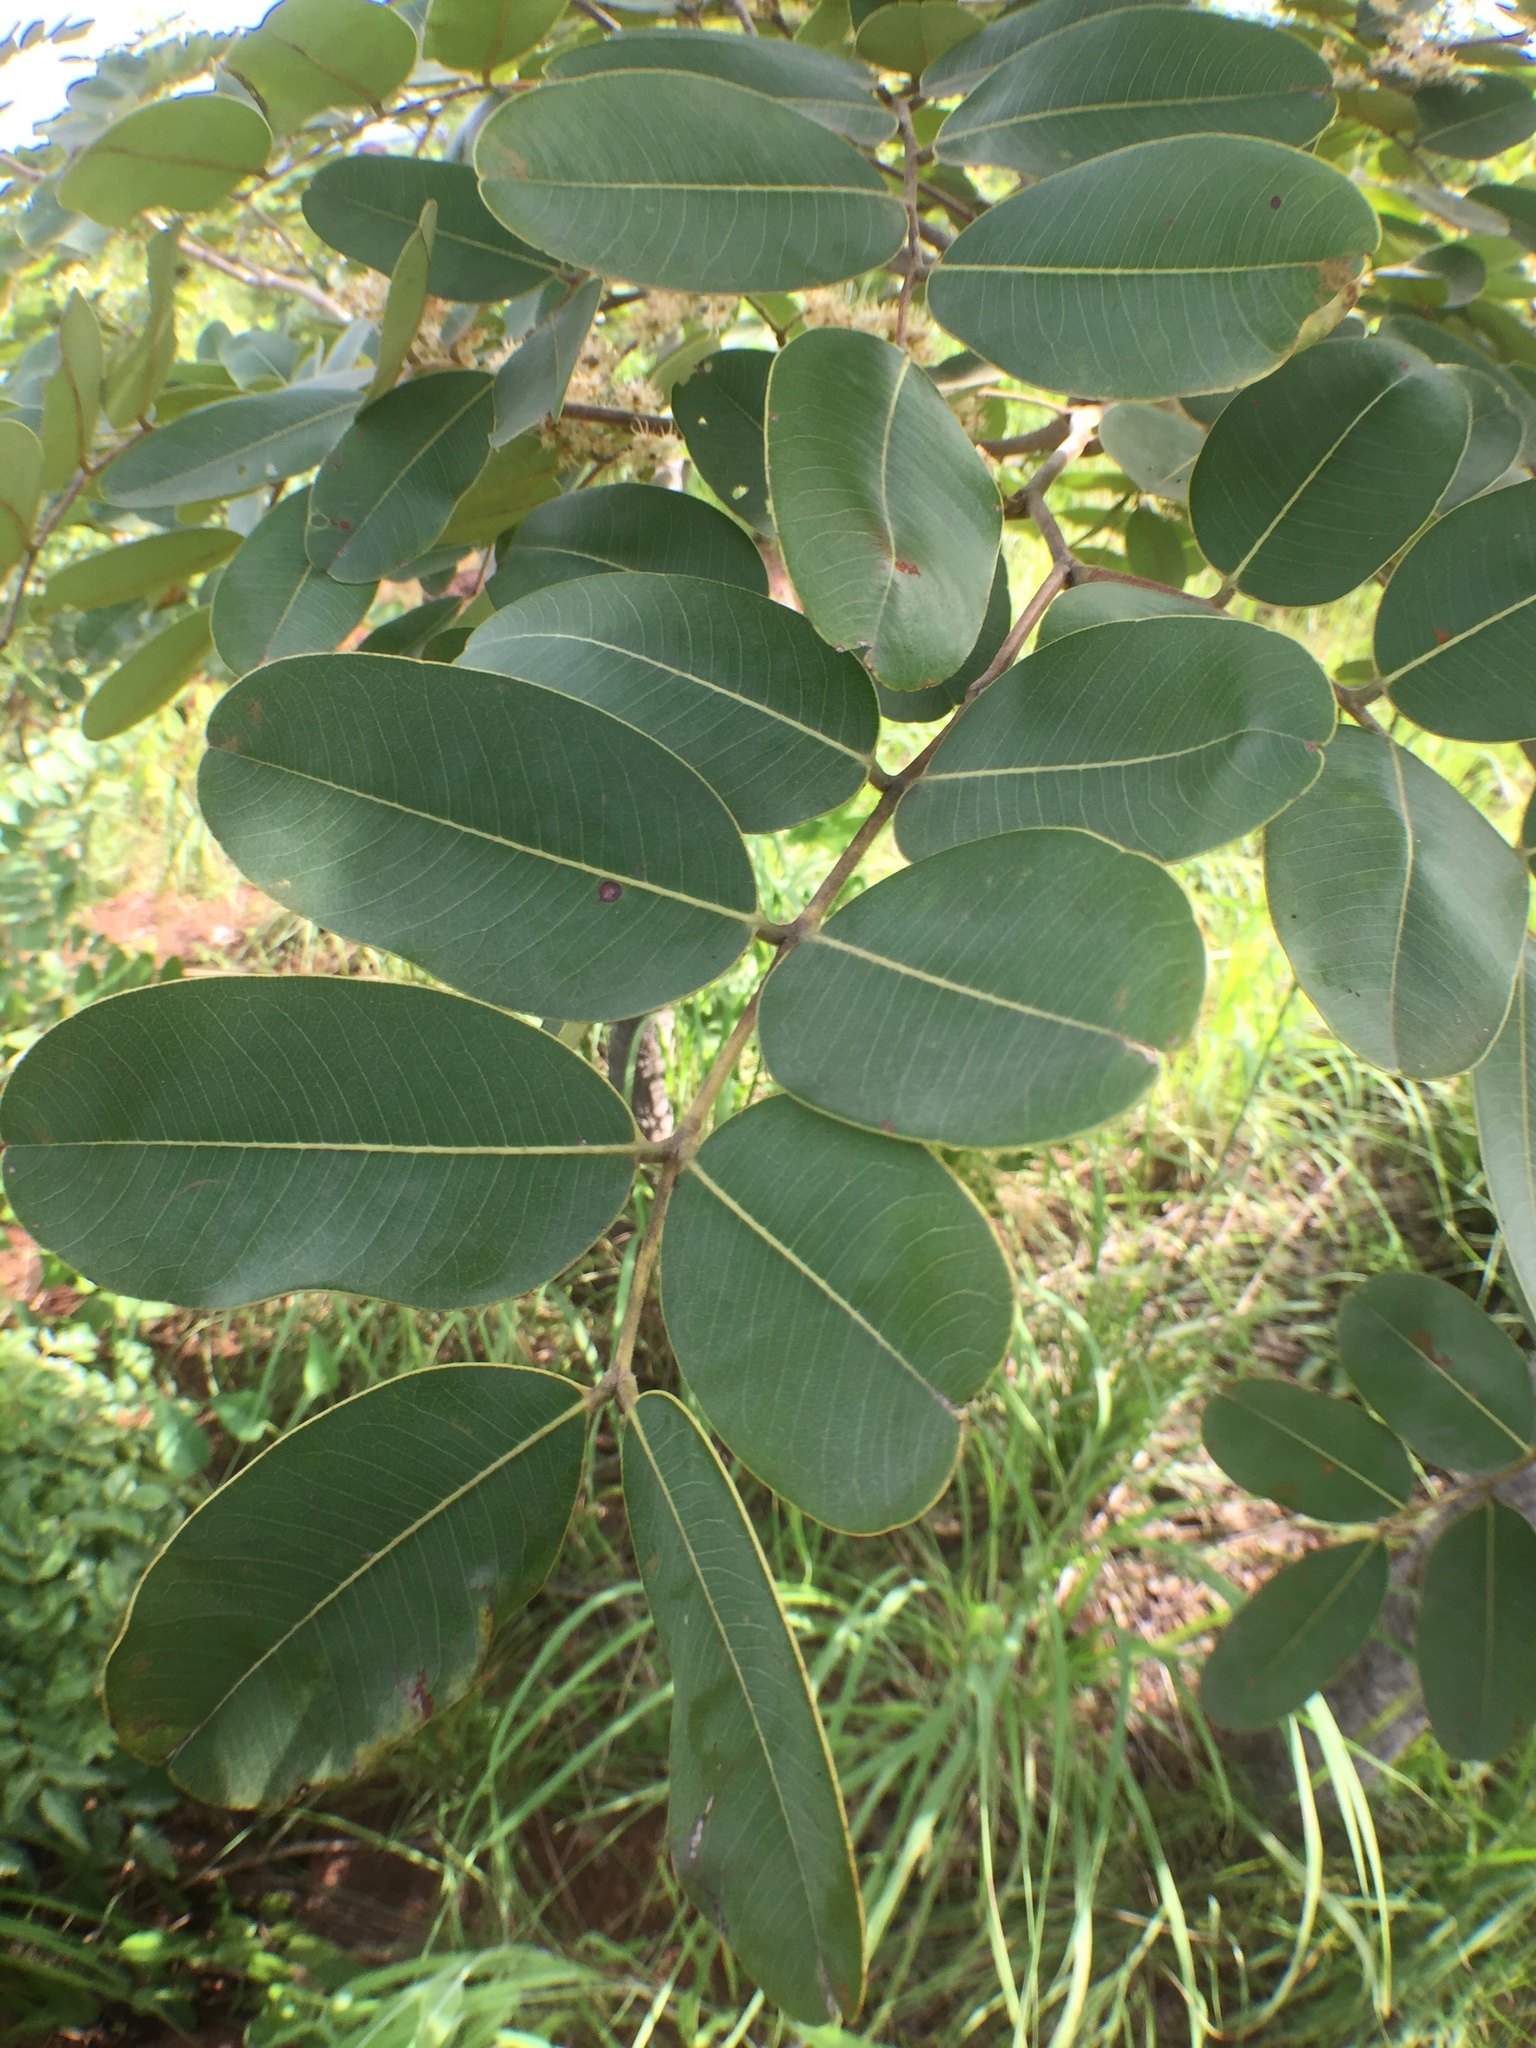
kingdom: Plantae
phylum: Tracheophyta
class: Magnoliopsida
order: Fabales
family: Fabaceae
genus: Detarium
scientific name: Detarium microcarpum
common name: Sweet dattock
